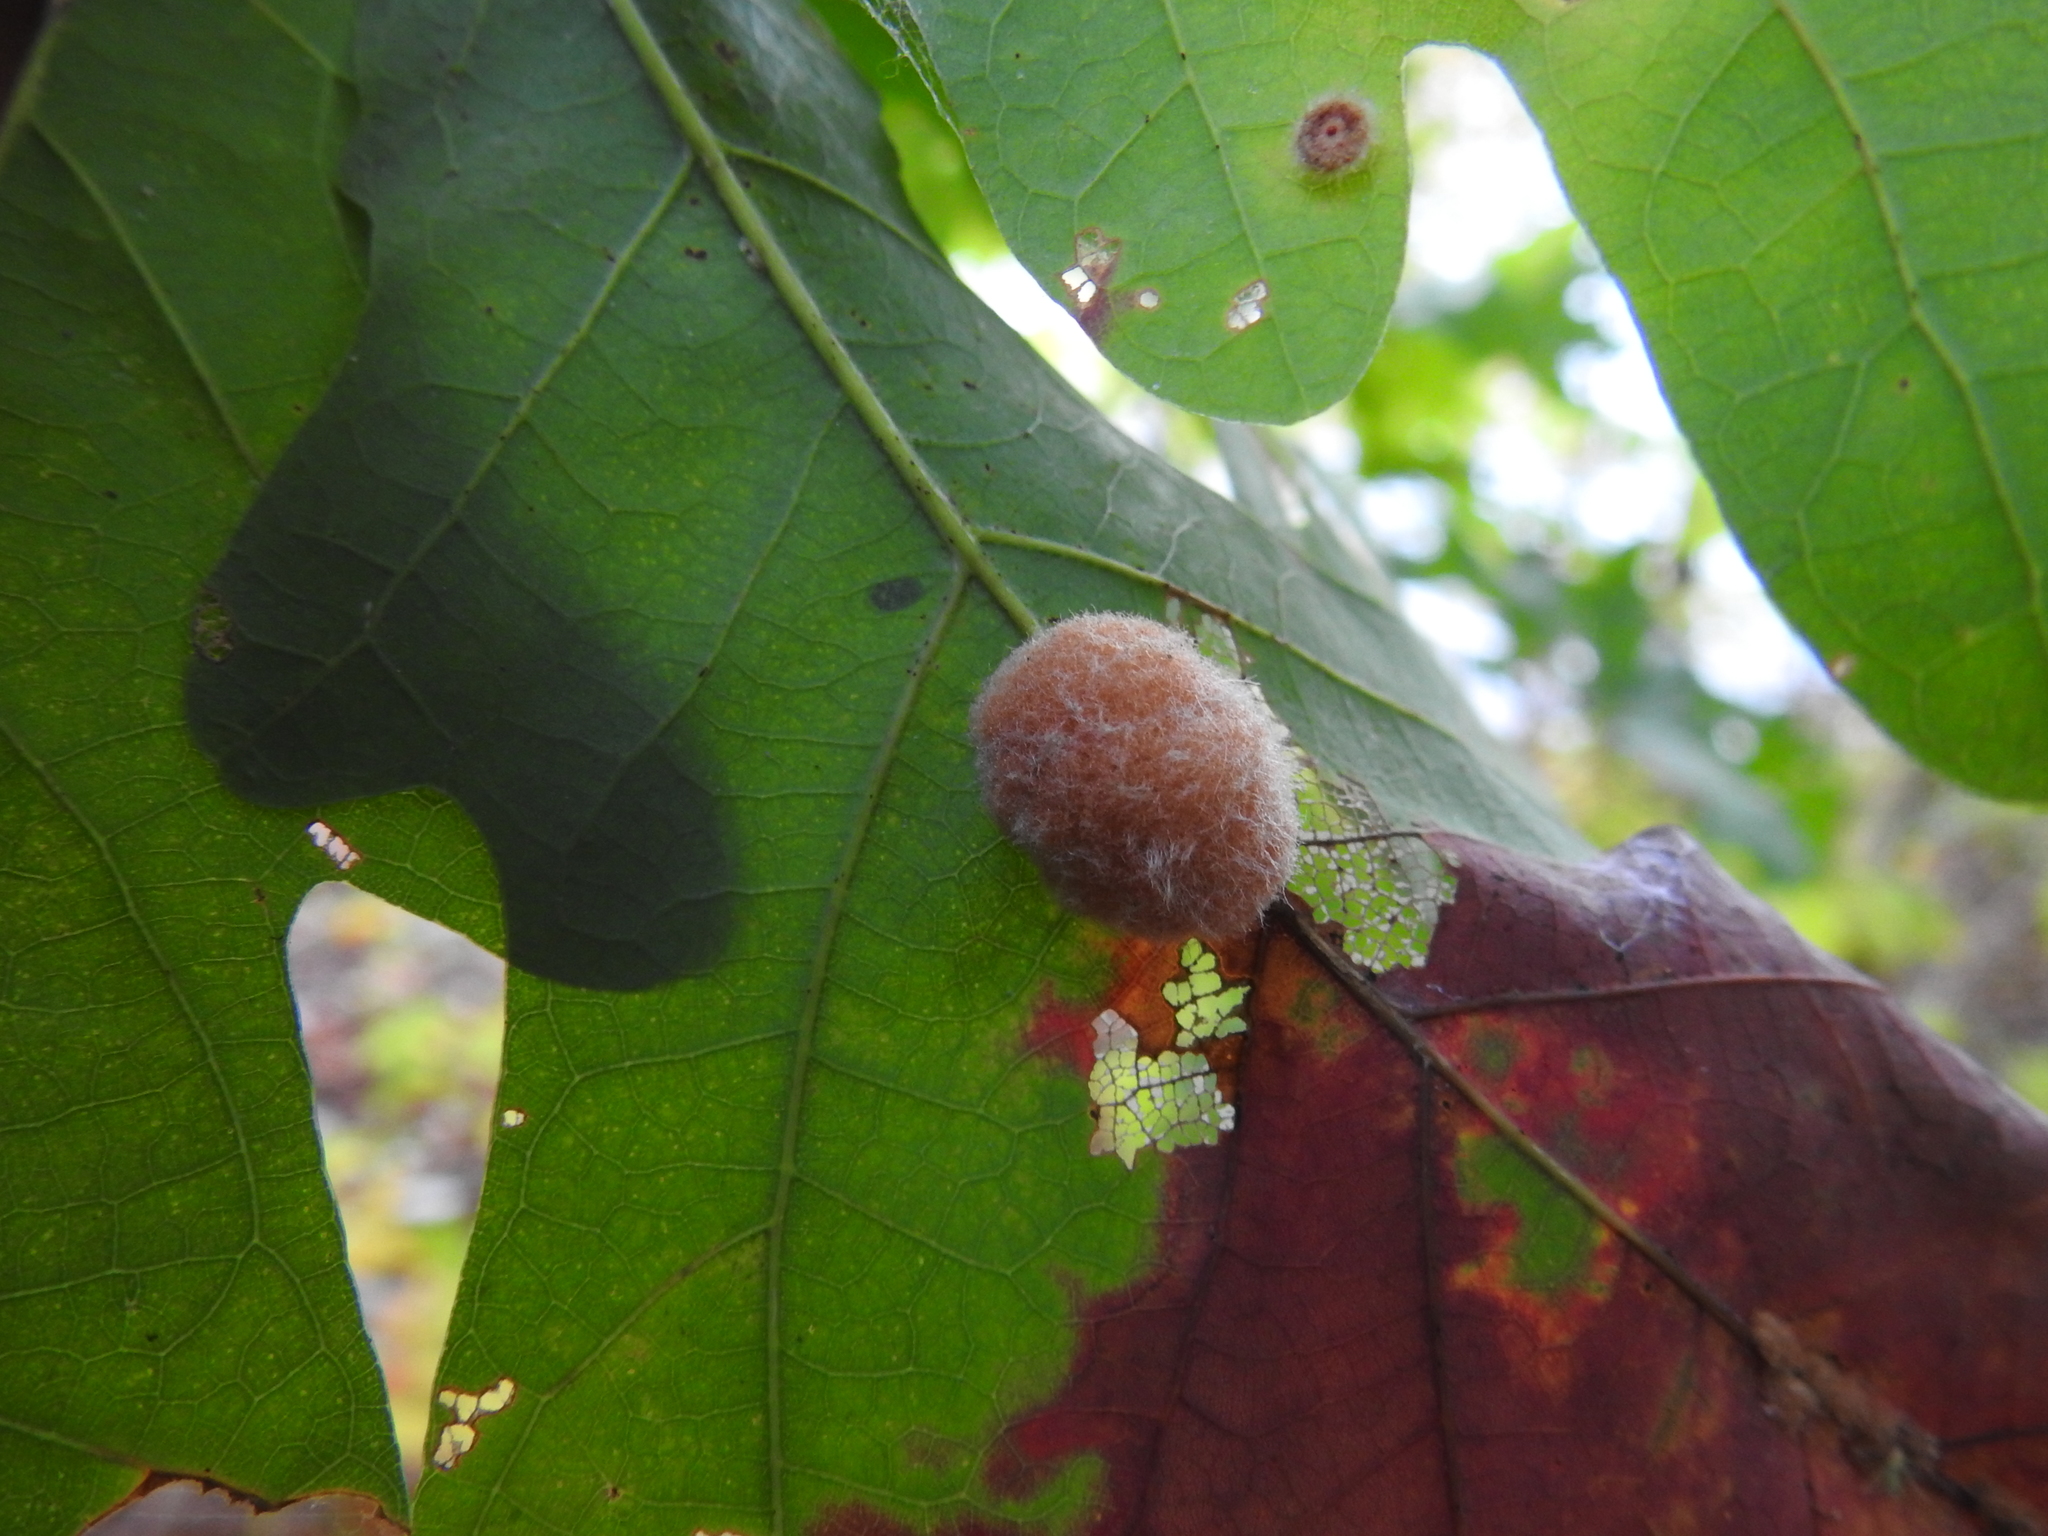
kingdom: Animalia
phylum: Arthropoda
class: Insecta
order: Hymenoptera
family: Cynipidae
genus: Neuroterus
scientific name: Neuroterus
